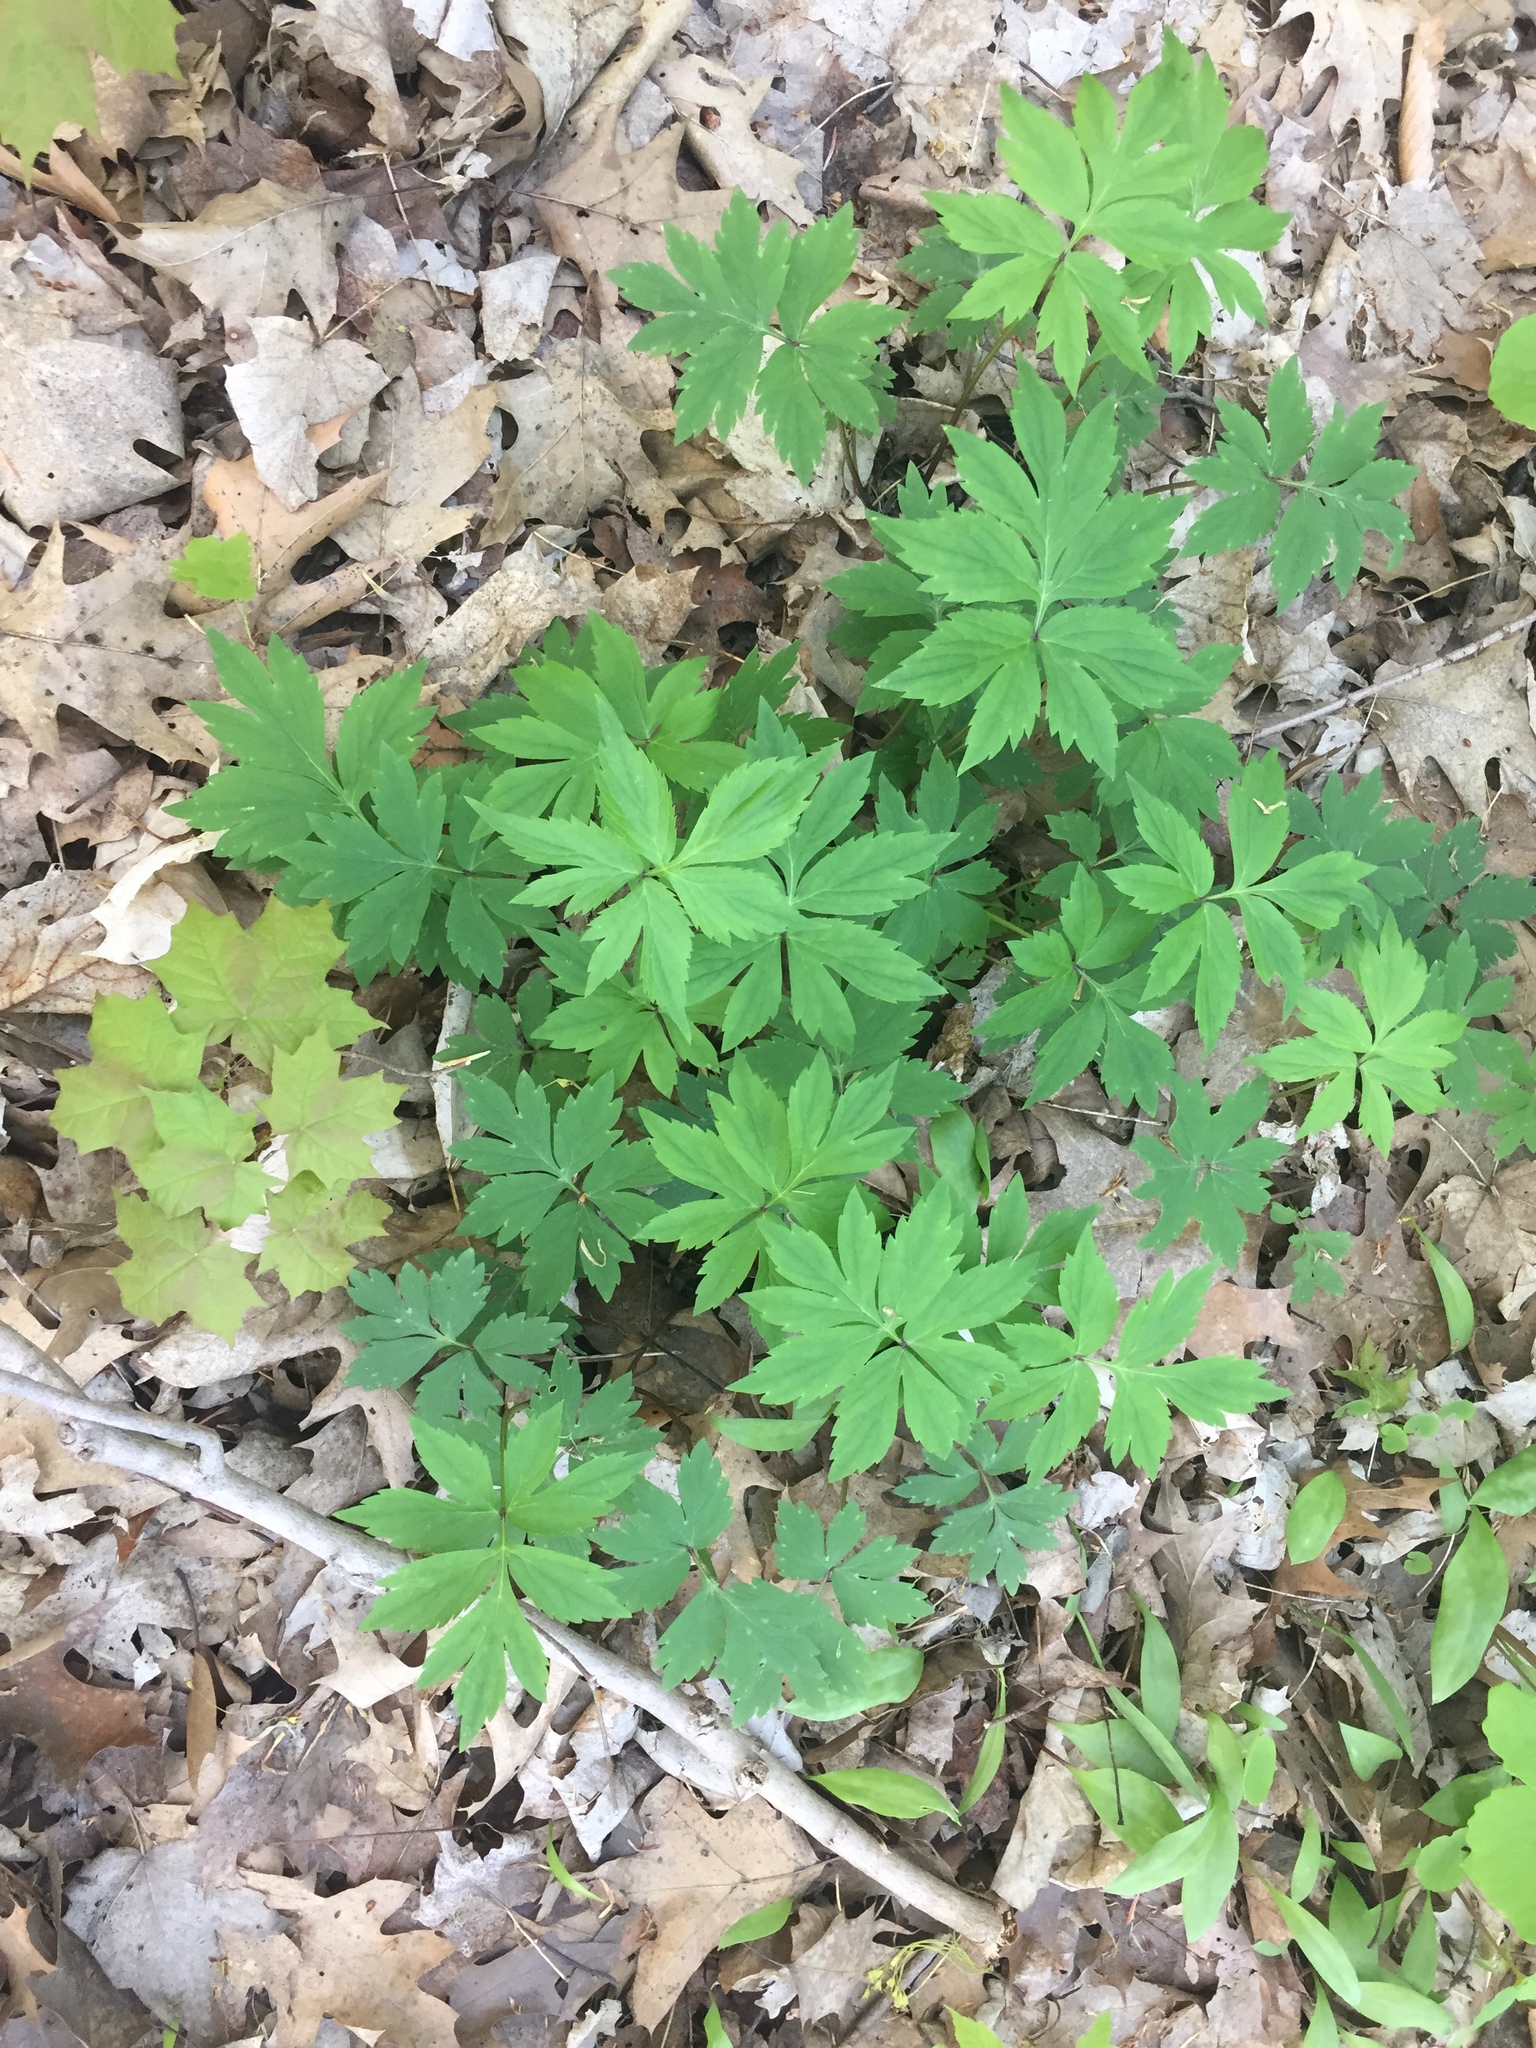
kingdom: Plantae
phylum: Tracheophyta
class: Magnoliopsida
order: Boraginales
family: Hydrophyllaceae
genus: Hydrophyllum
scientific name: Hydrophyllum virginianum
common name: Virginia waterleaf
